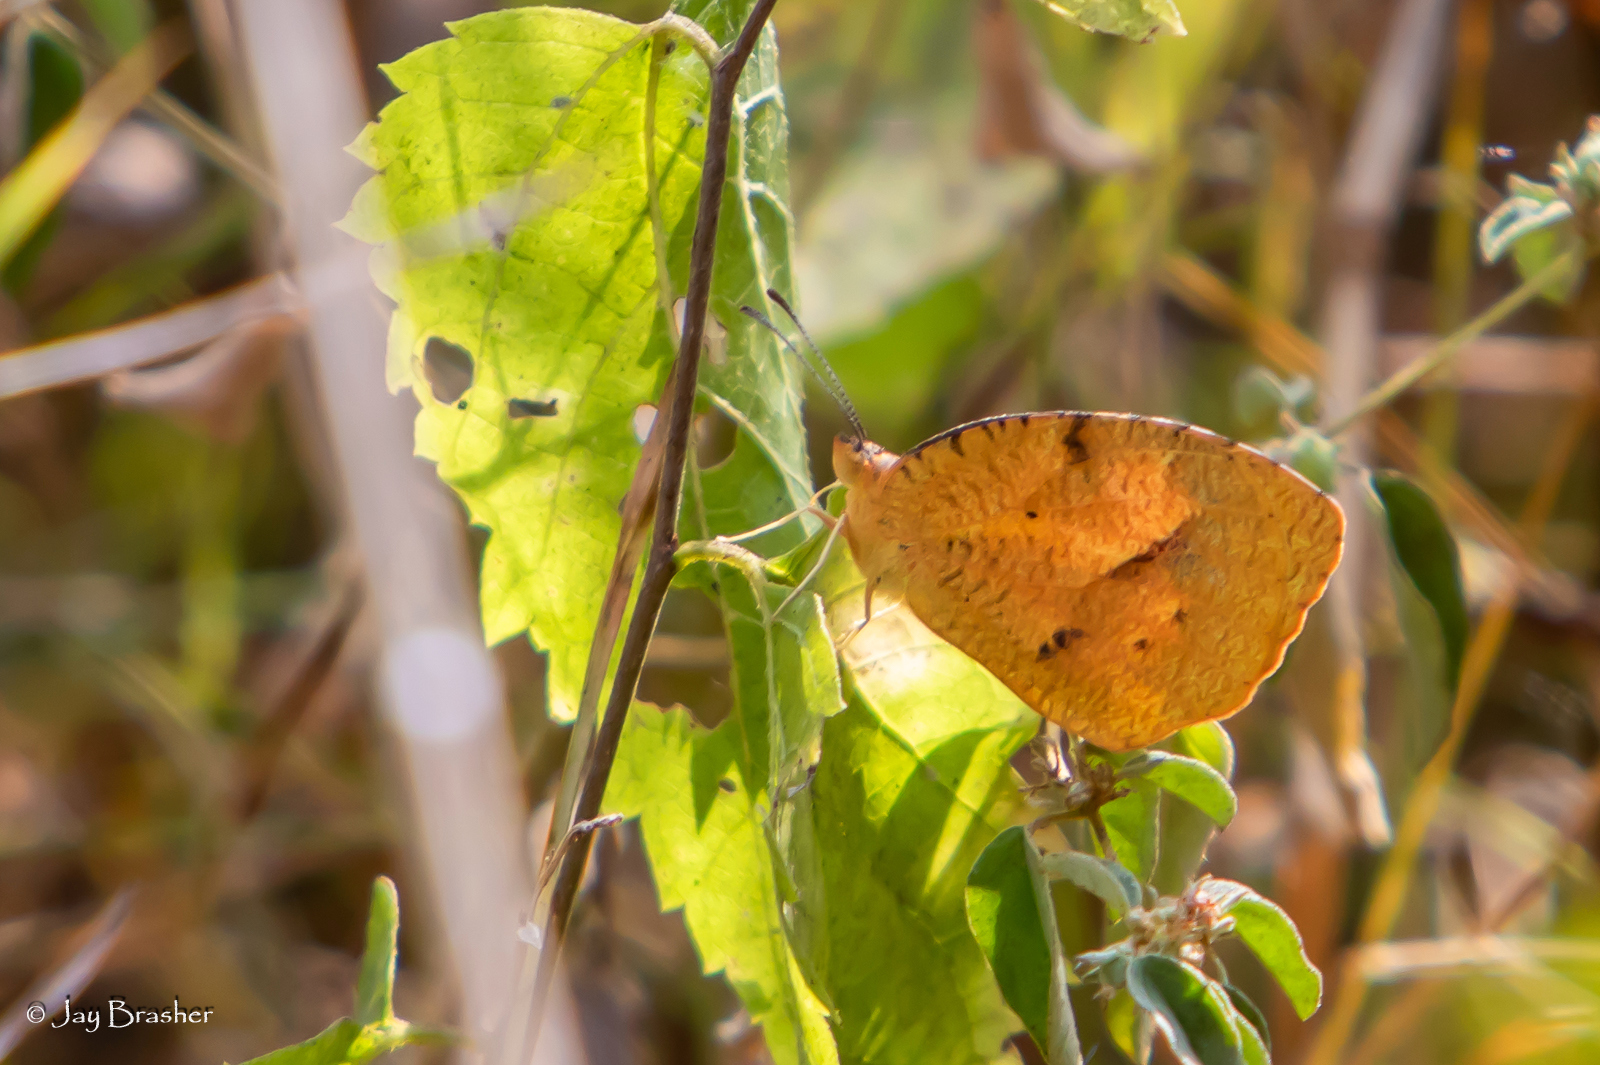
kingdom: Animalia
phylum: Arthropoda
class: Insecta
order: Lepidoptera
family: Pieridae
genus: Abaeis
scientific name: Abaeis nicippe
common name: Sleepy orange
